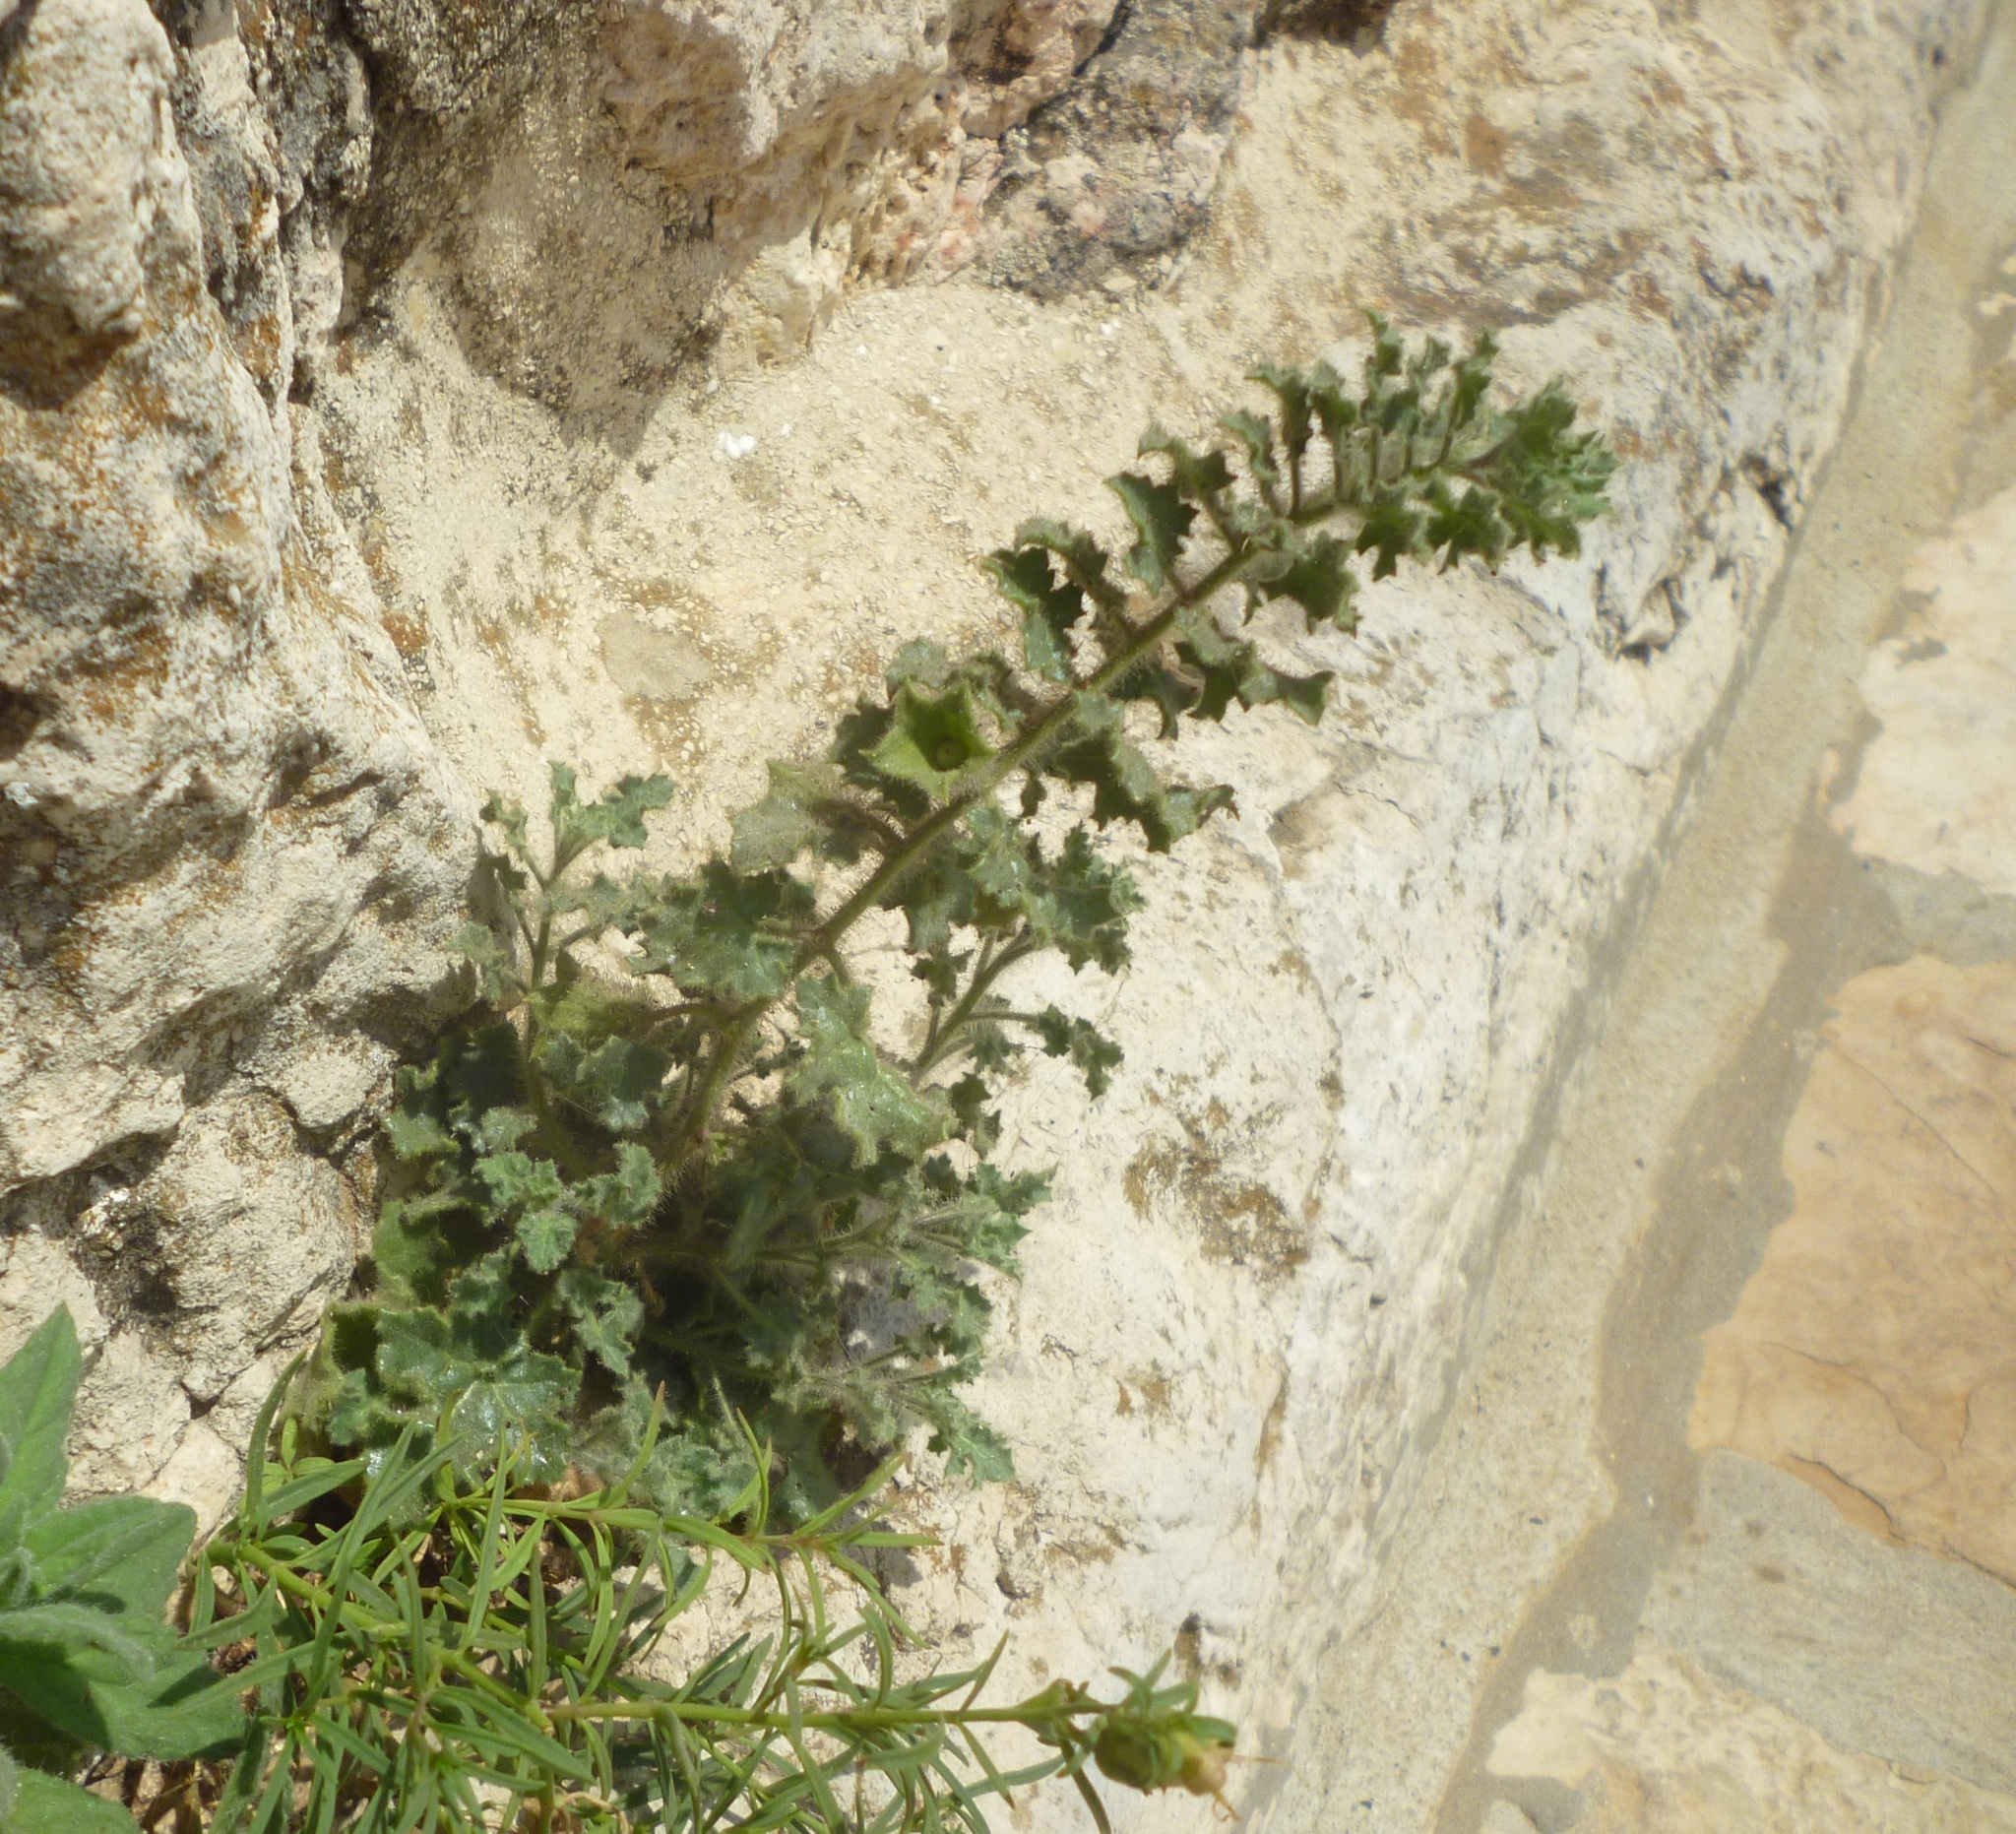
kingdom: Plantae
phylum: Tracheophyta
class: Magnoliopsida
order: Solanales
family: Solanaceae
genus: Hyoscyamus
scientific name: Hyoscyamus aureus
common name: Golden henbane
